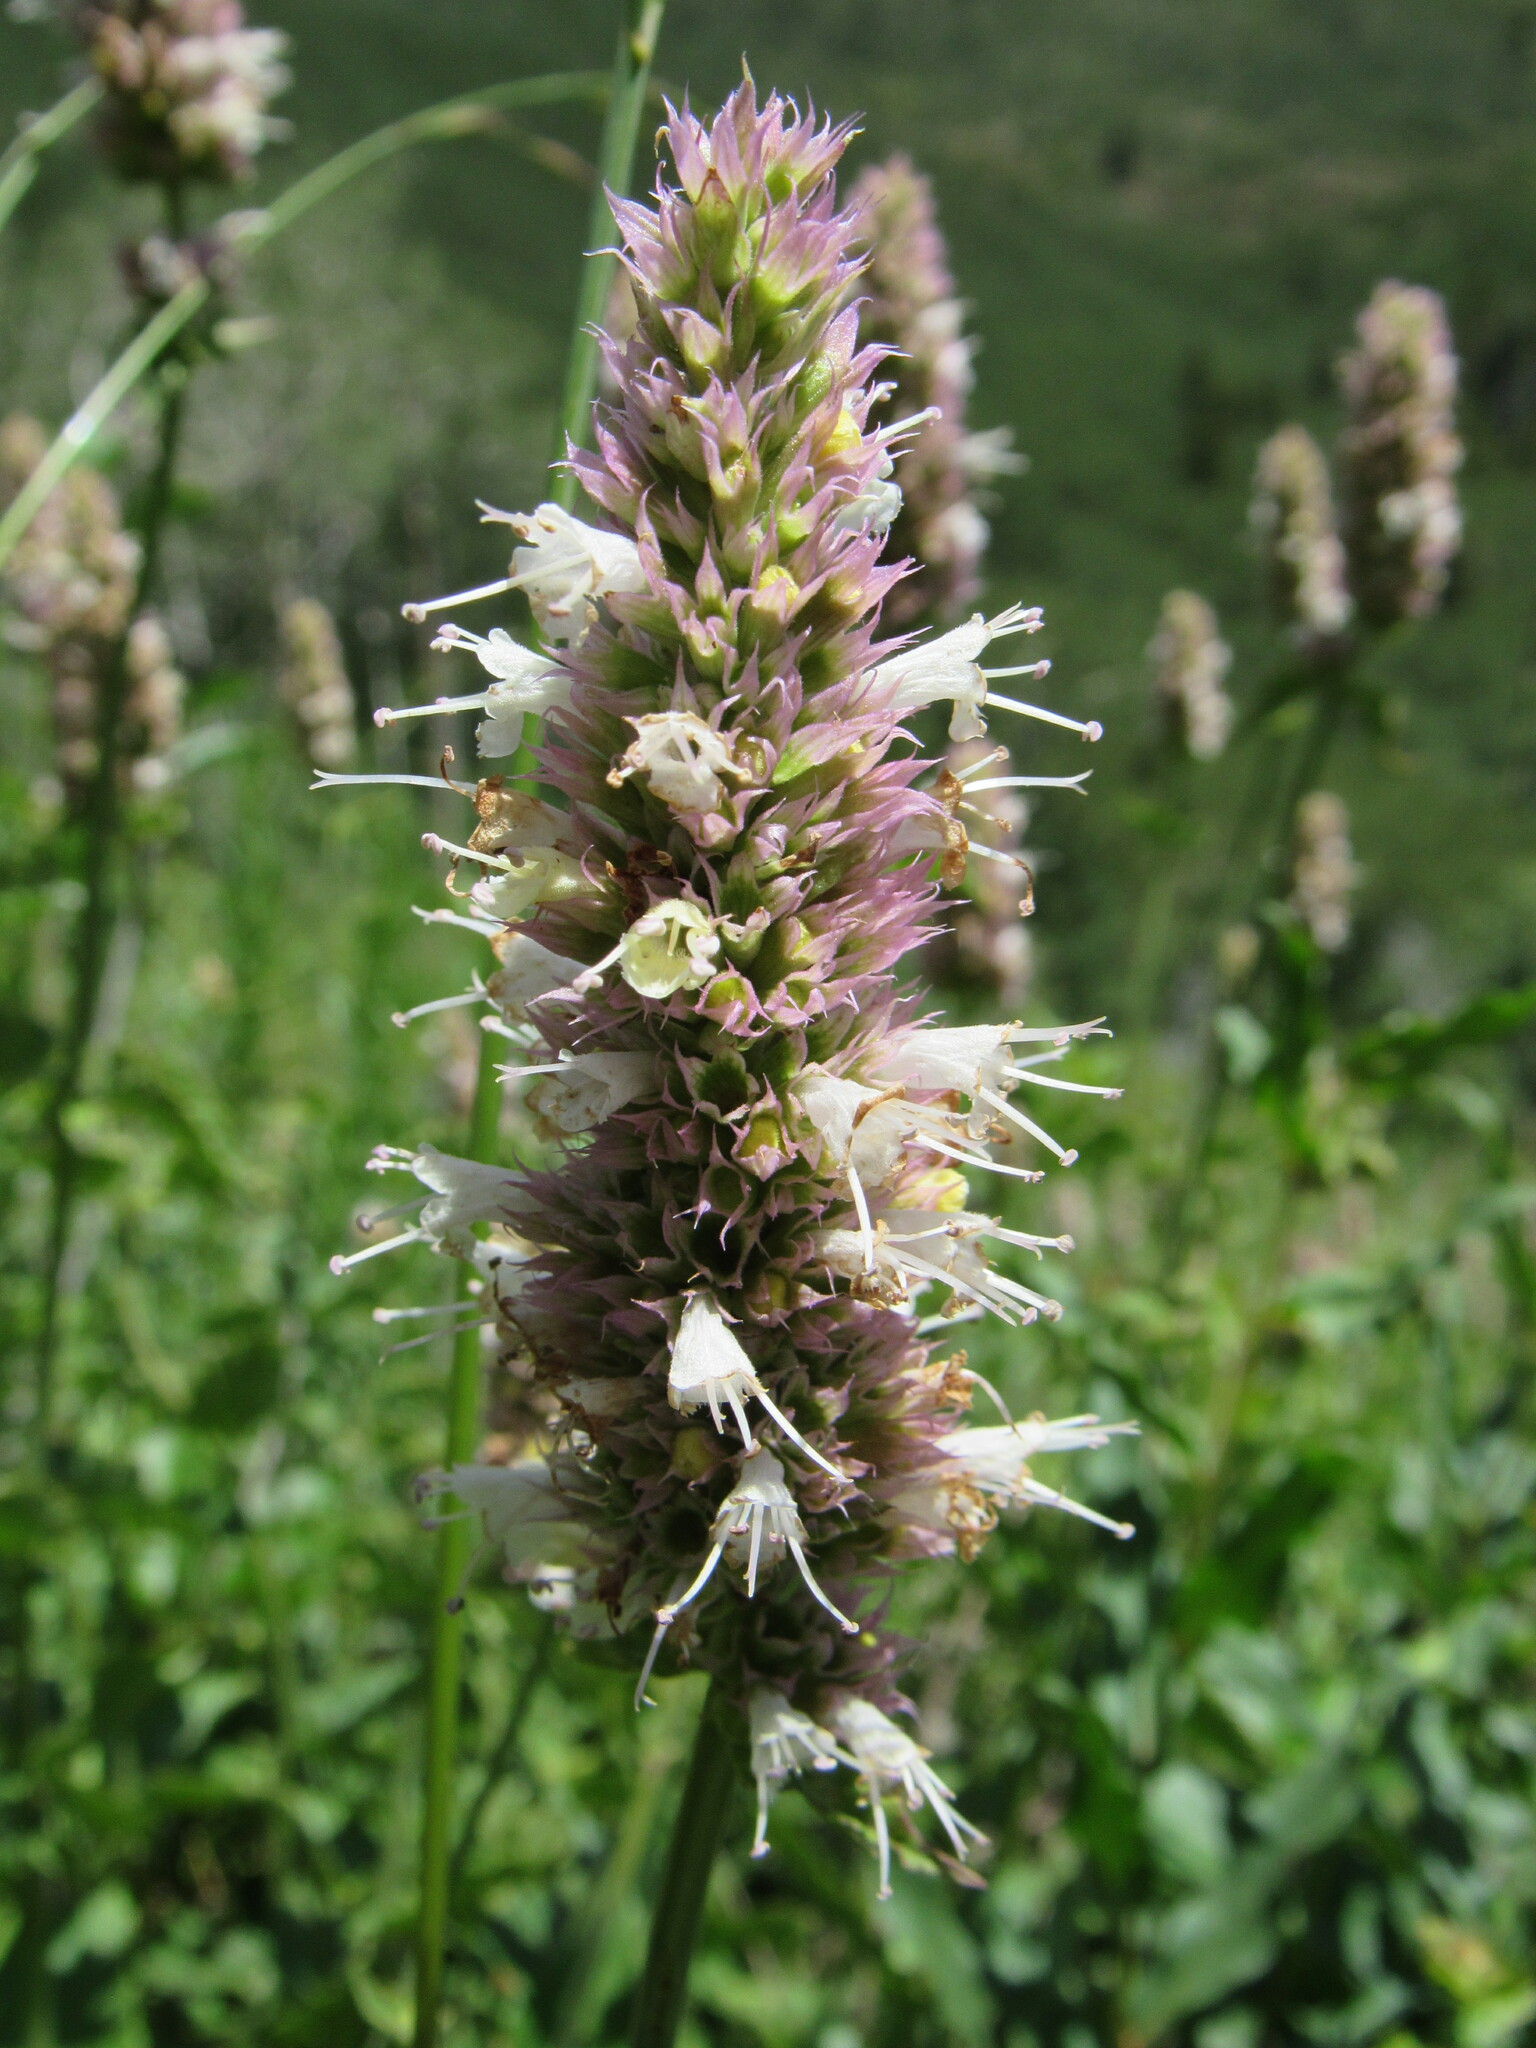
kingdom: Plantae
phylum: Tracheophyta
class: Magnoliopsida
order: Lamiales
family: Lamiaceae
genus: Agastache
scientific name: Agastache urticifolia
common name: Horsemint giant hyssop
